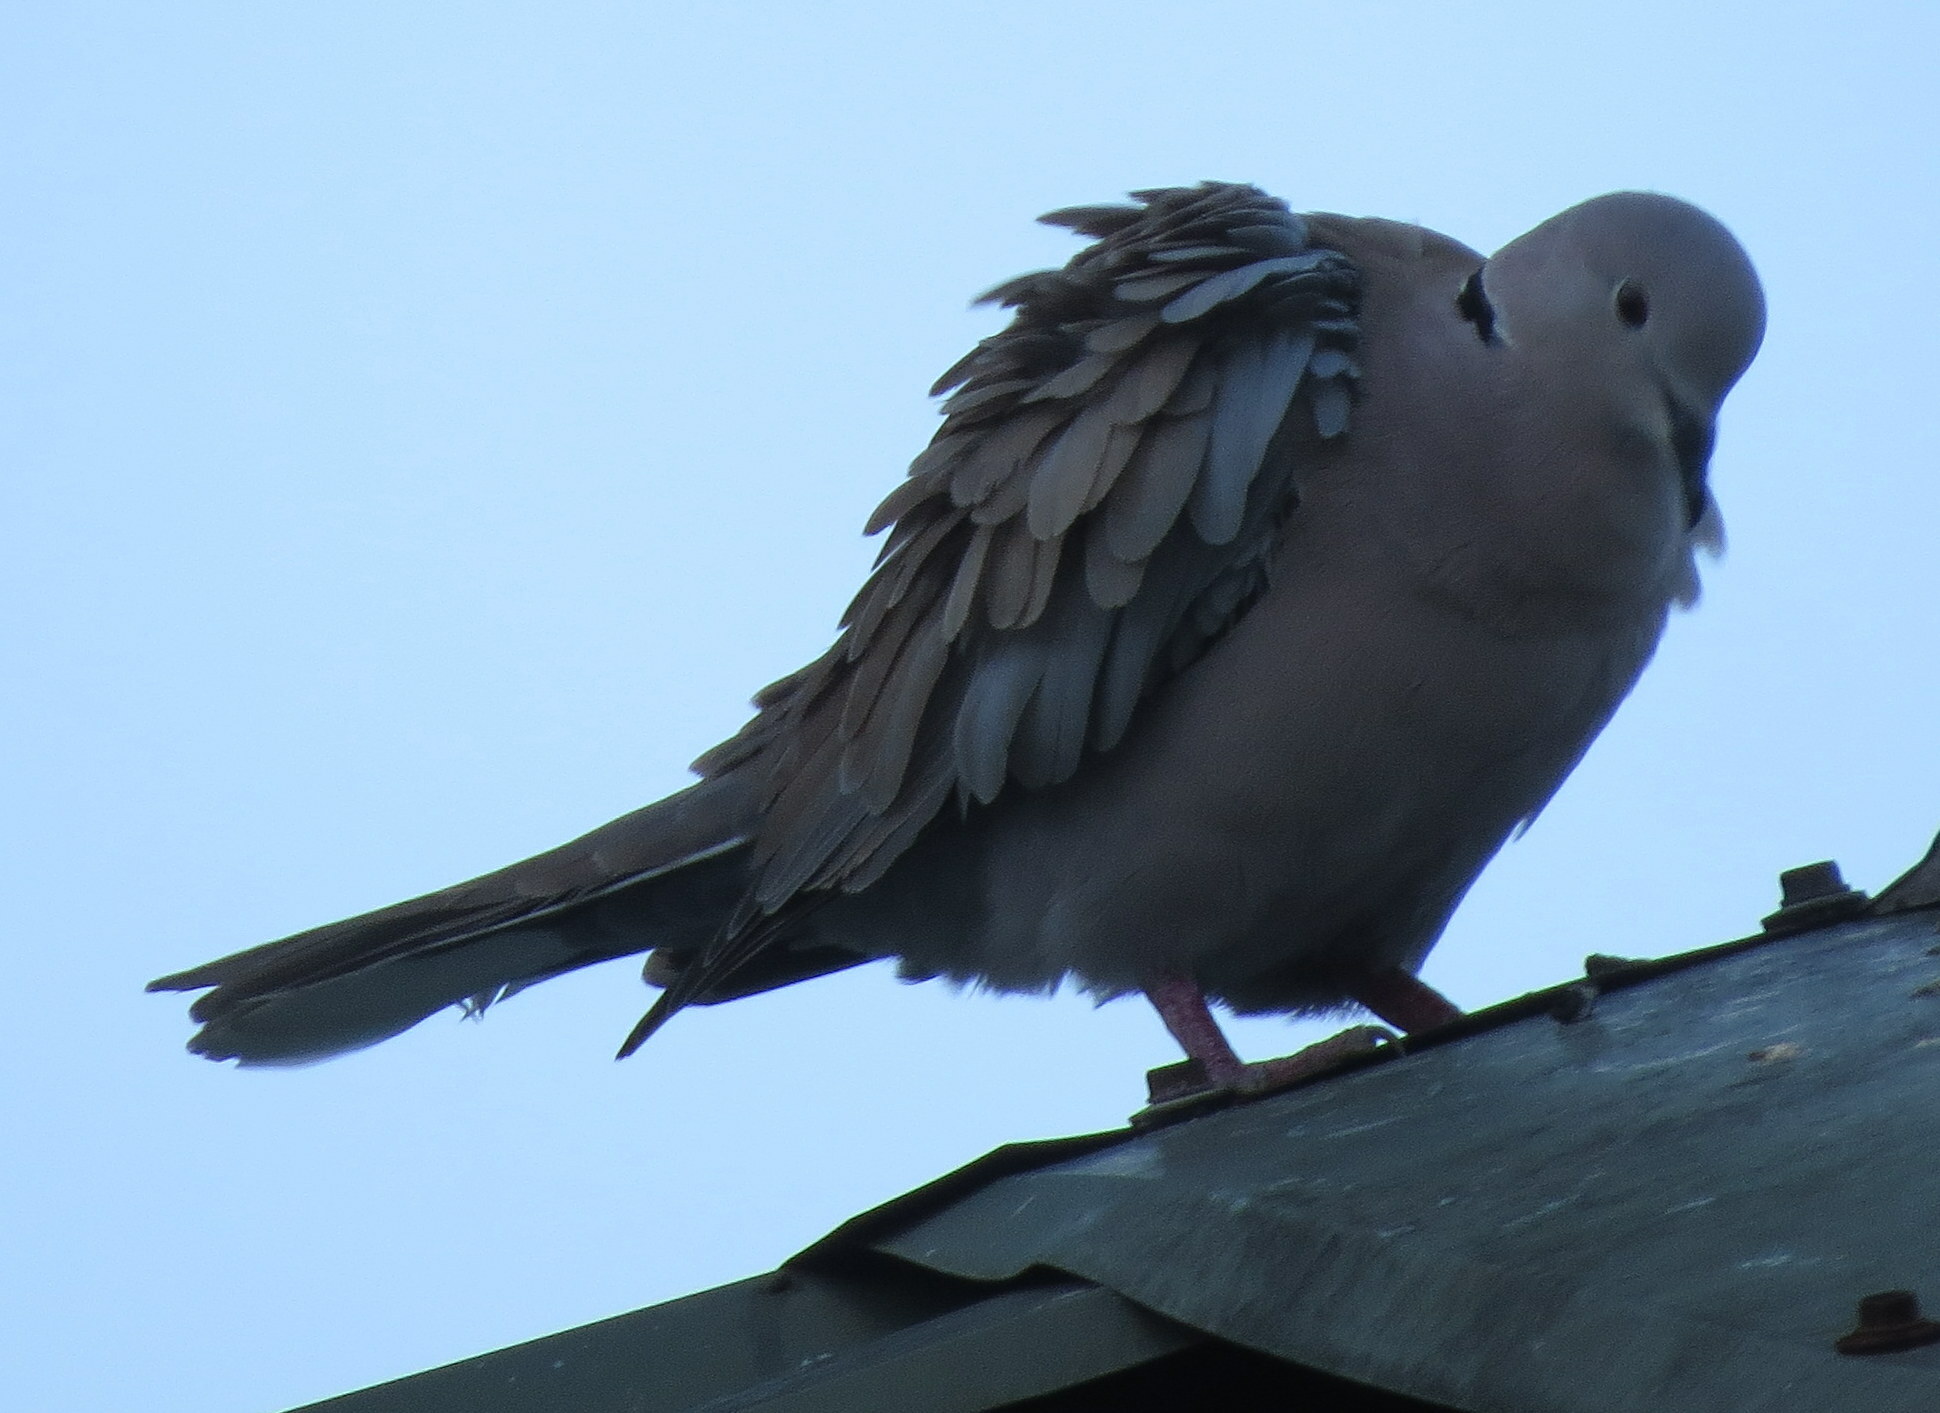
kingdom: Animalia
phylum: Chordata
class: Aves
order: Columbiformes
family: Columbidae
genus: Streptopelia
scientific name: Streptopelia decaocto
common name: Eurasian collared dove
